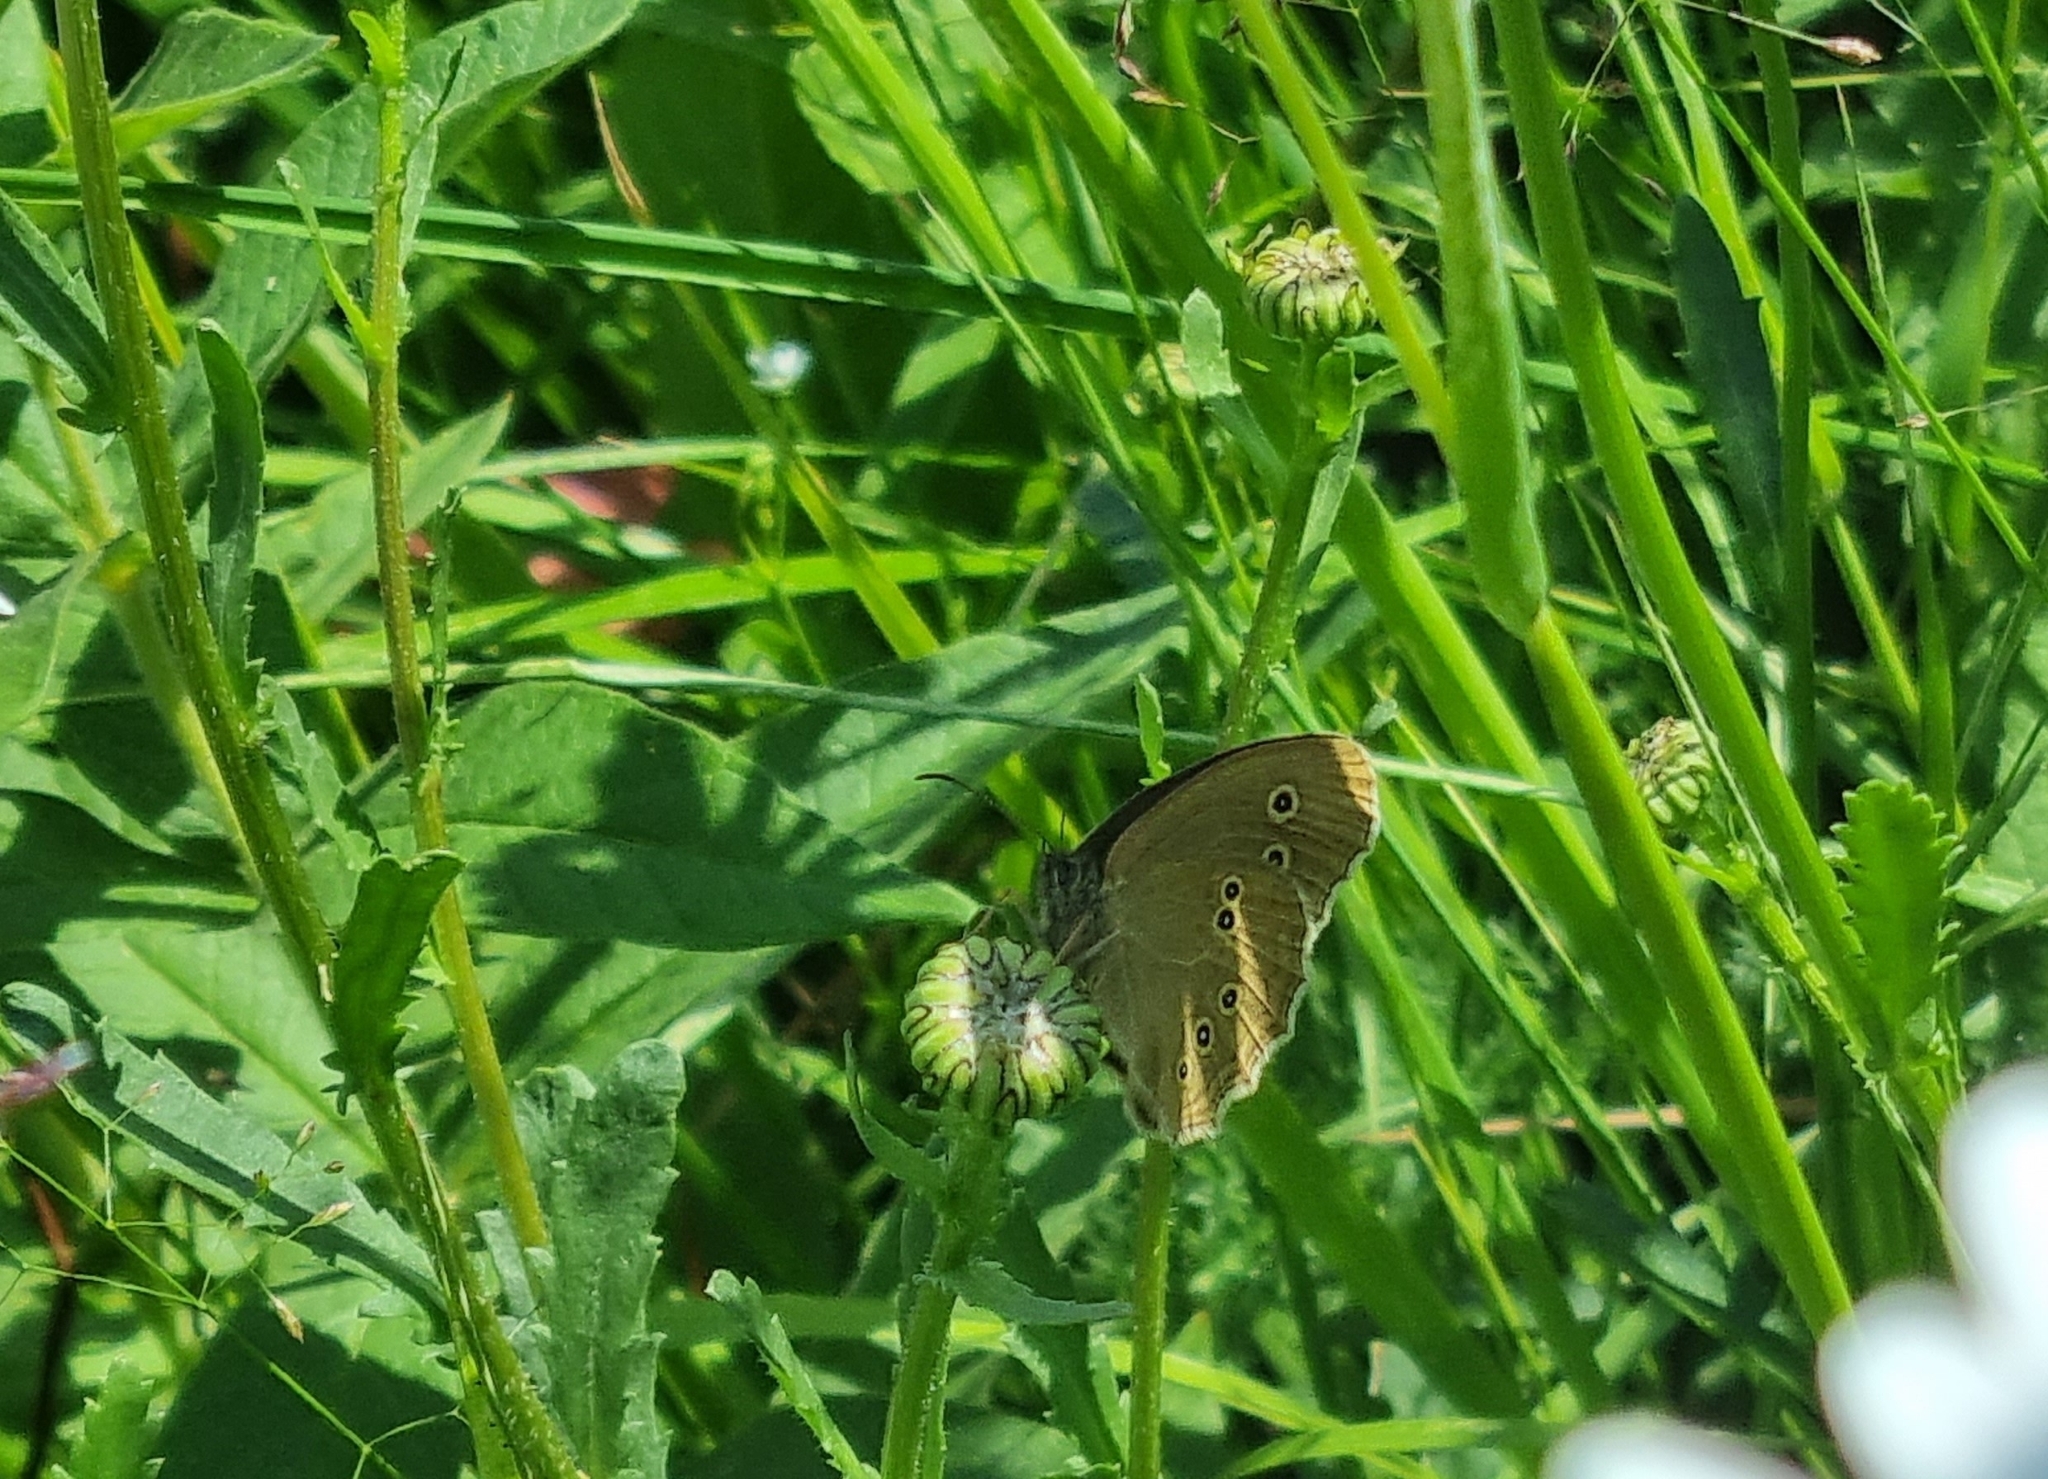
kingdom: Animalia
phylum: Arthropoda
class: Insecta
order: Lepidoptera
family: Nymphalidae
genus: Aphantopus
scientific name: Aphantopus hyperantus
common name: Ringlet
